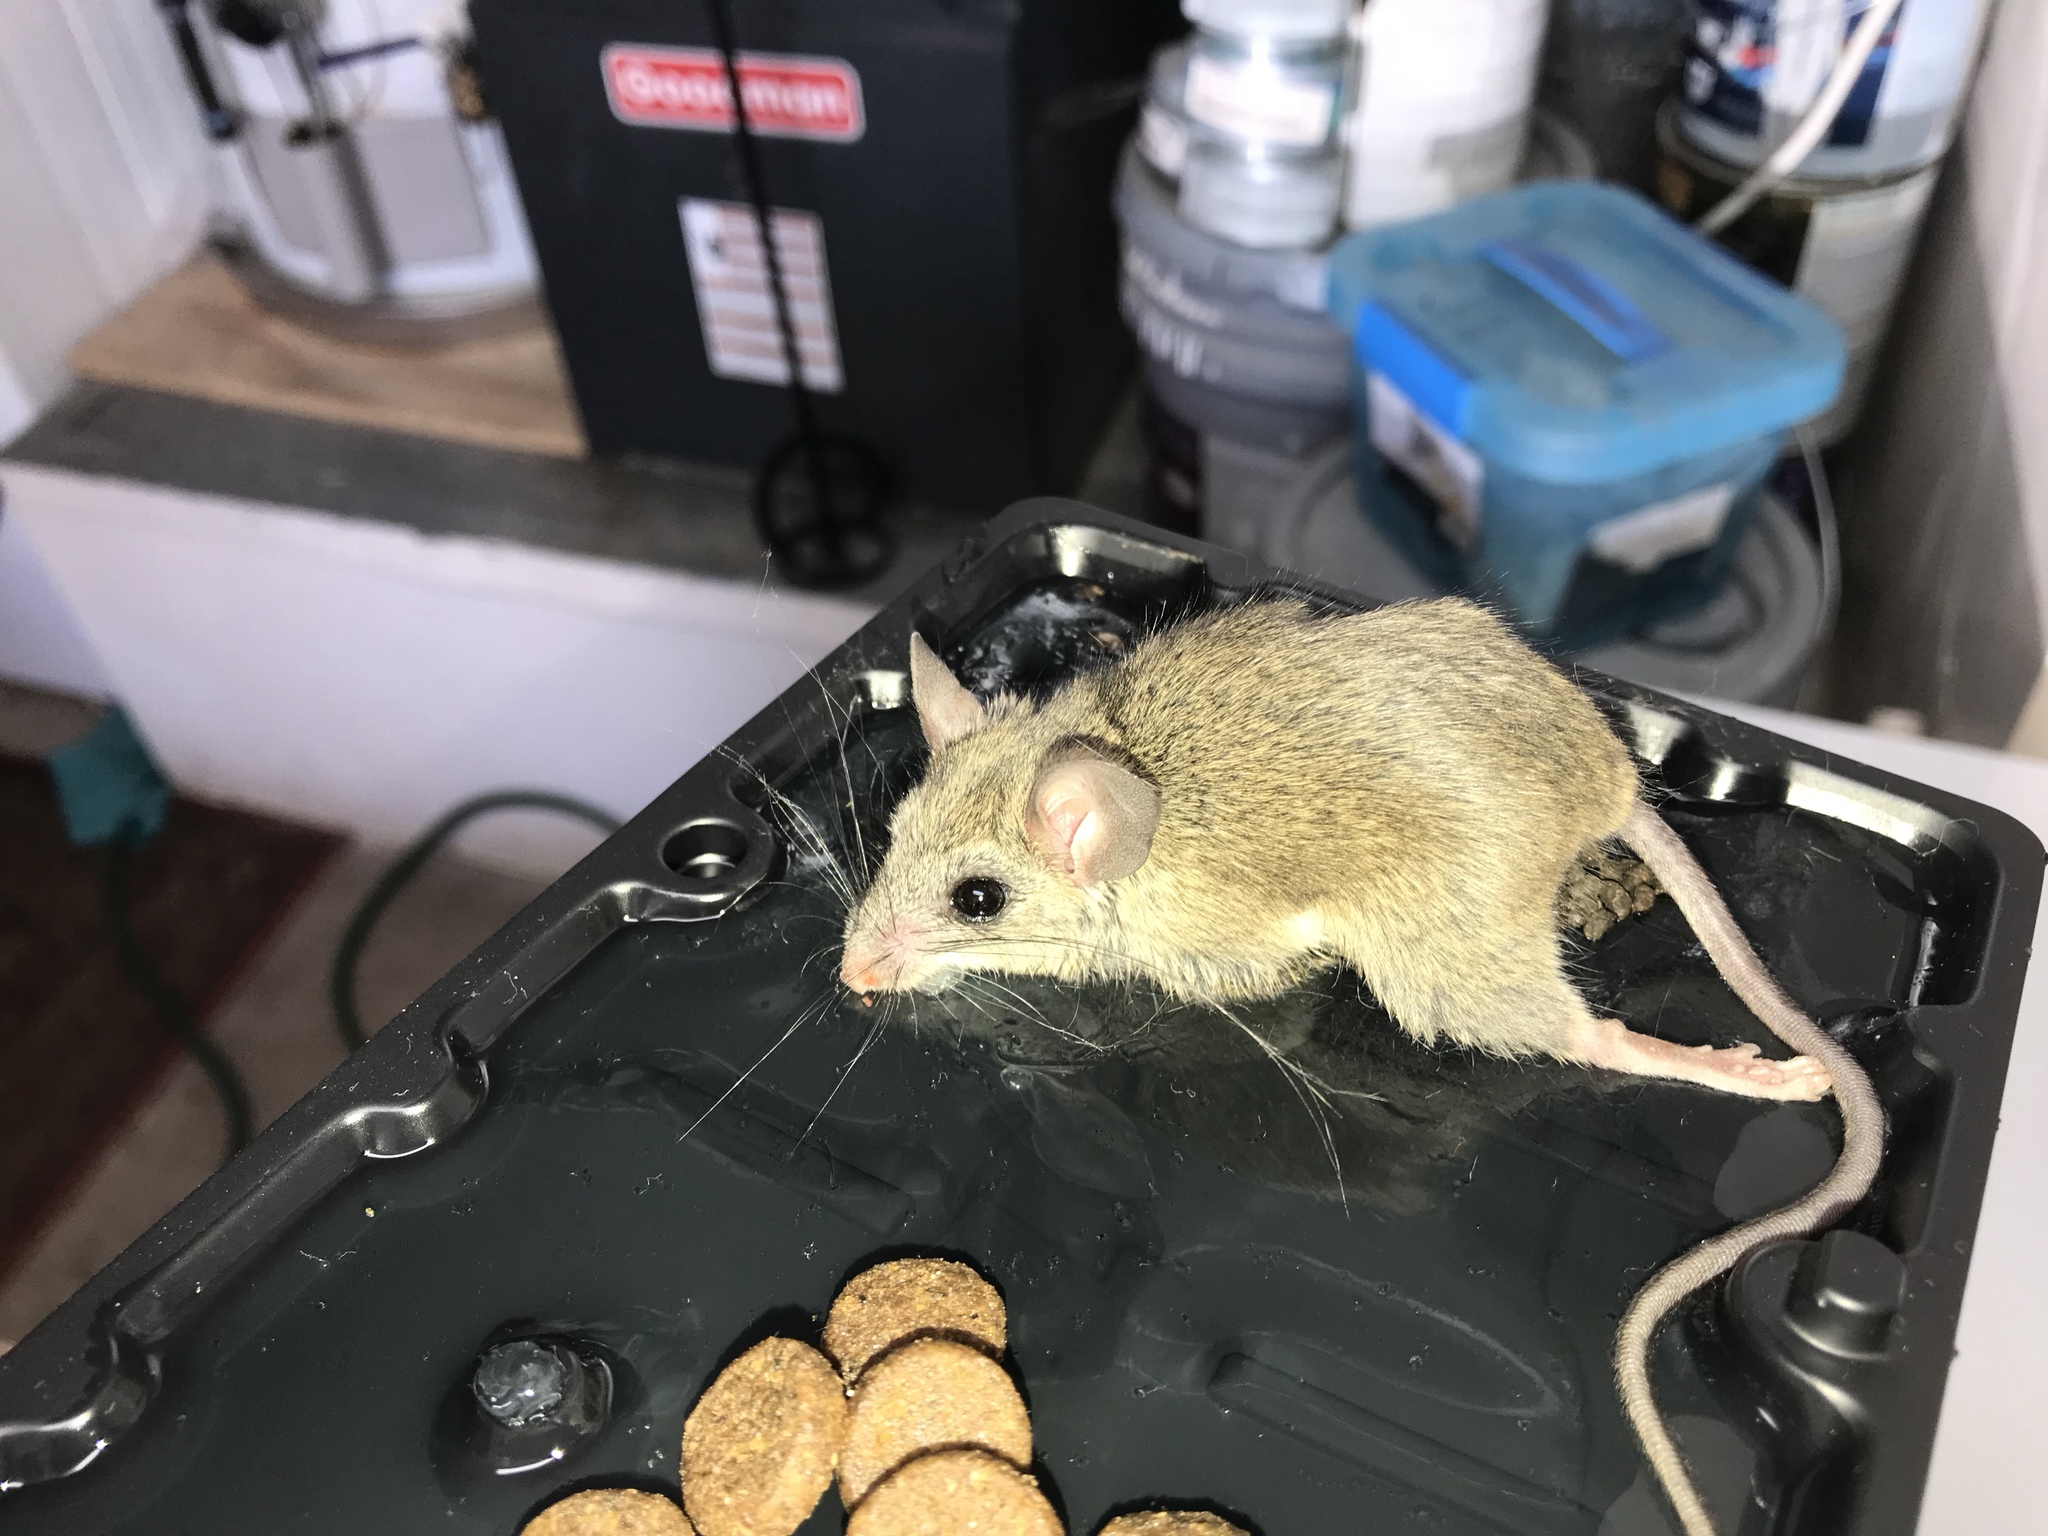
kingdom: Animalia
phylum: Chordata
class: Mammalia
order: Rodentia
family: Muridae
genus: Mus
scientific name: Mus musculus
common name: House mouse
